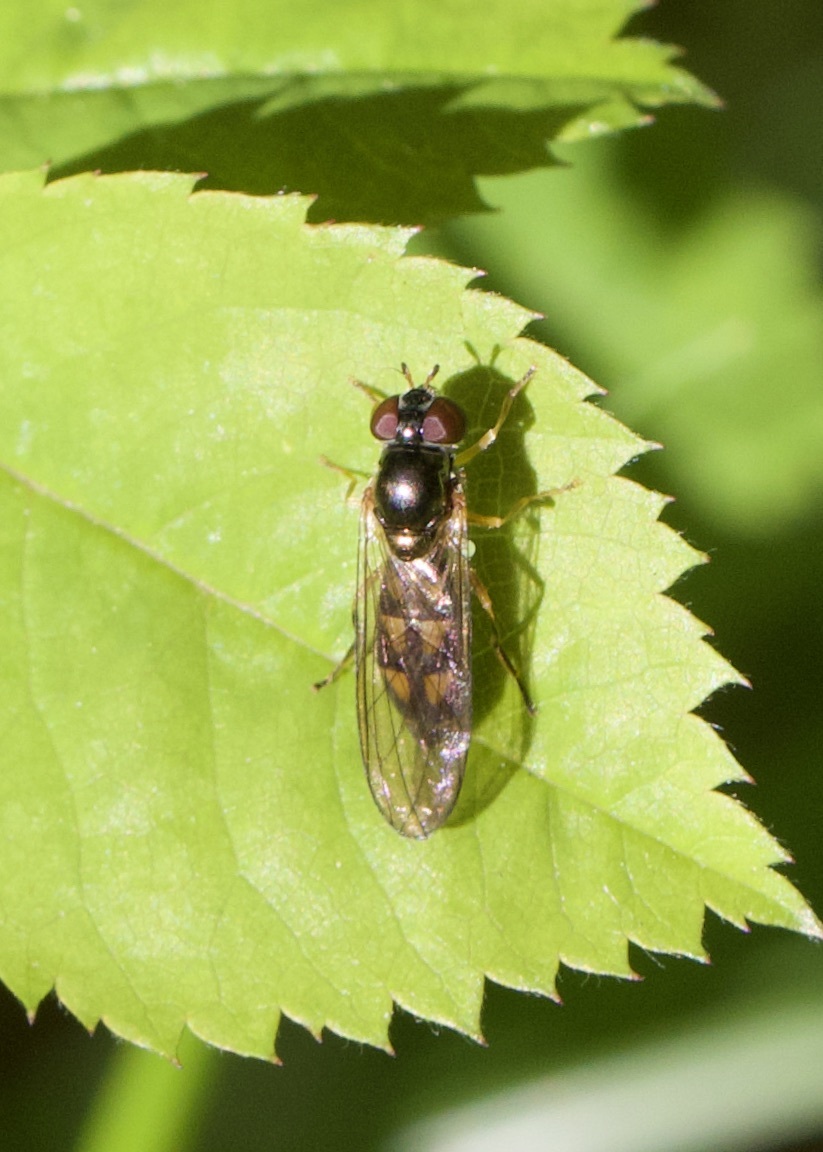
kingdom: Animalia
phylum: Arthropoda
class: Insecta
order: Diptera
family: Syrphidae
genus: Melanostoma
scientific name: Melanostoma scalare
